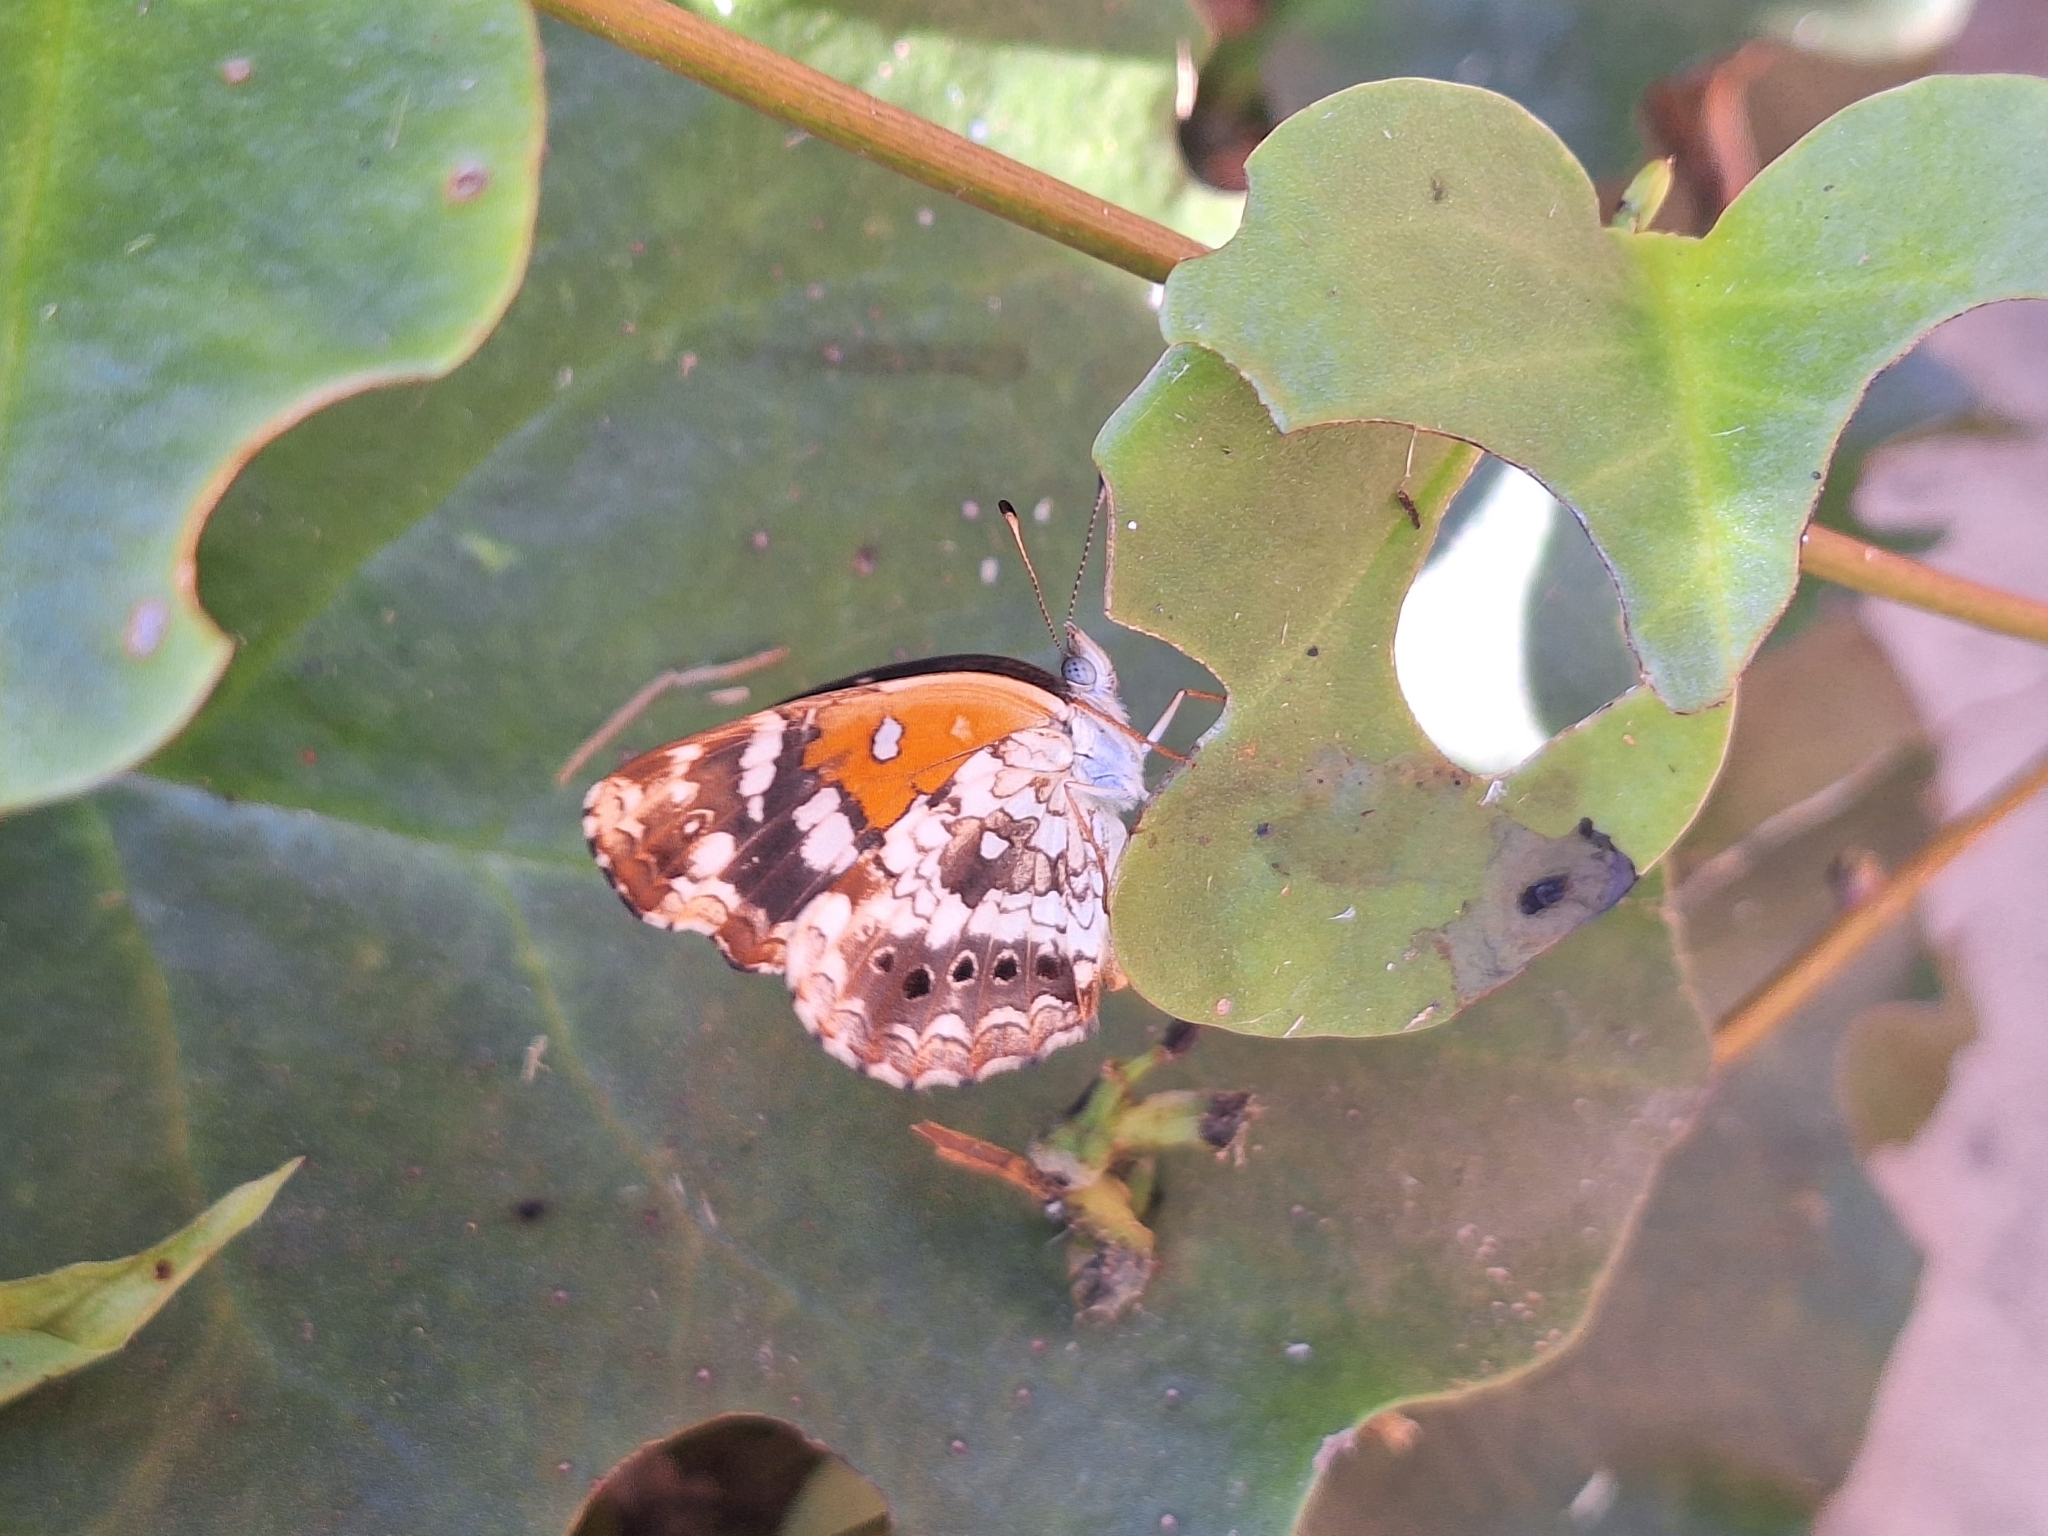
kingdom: Animalia
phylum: Arthropoda
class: Insecta
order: Lepidoptera
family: Nymphalidae
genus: Ortilia
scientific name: Ortilia ithra
